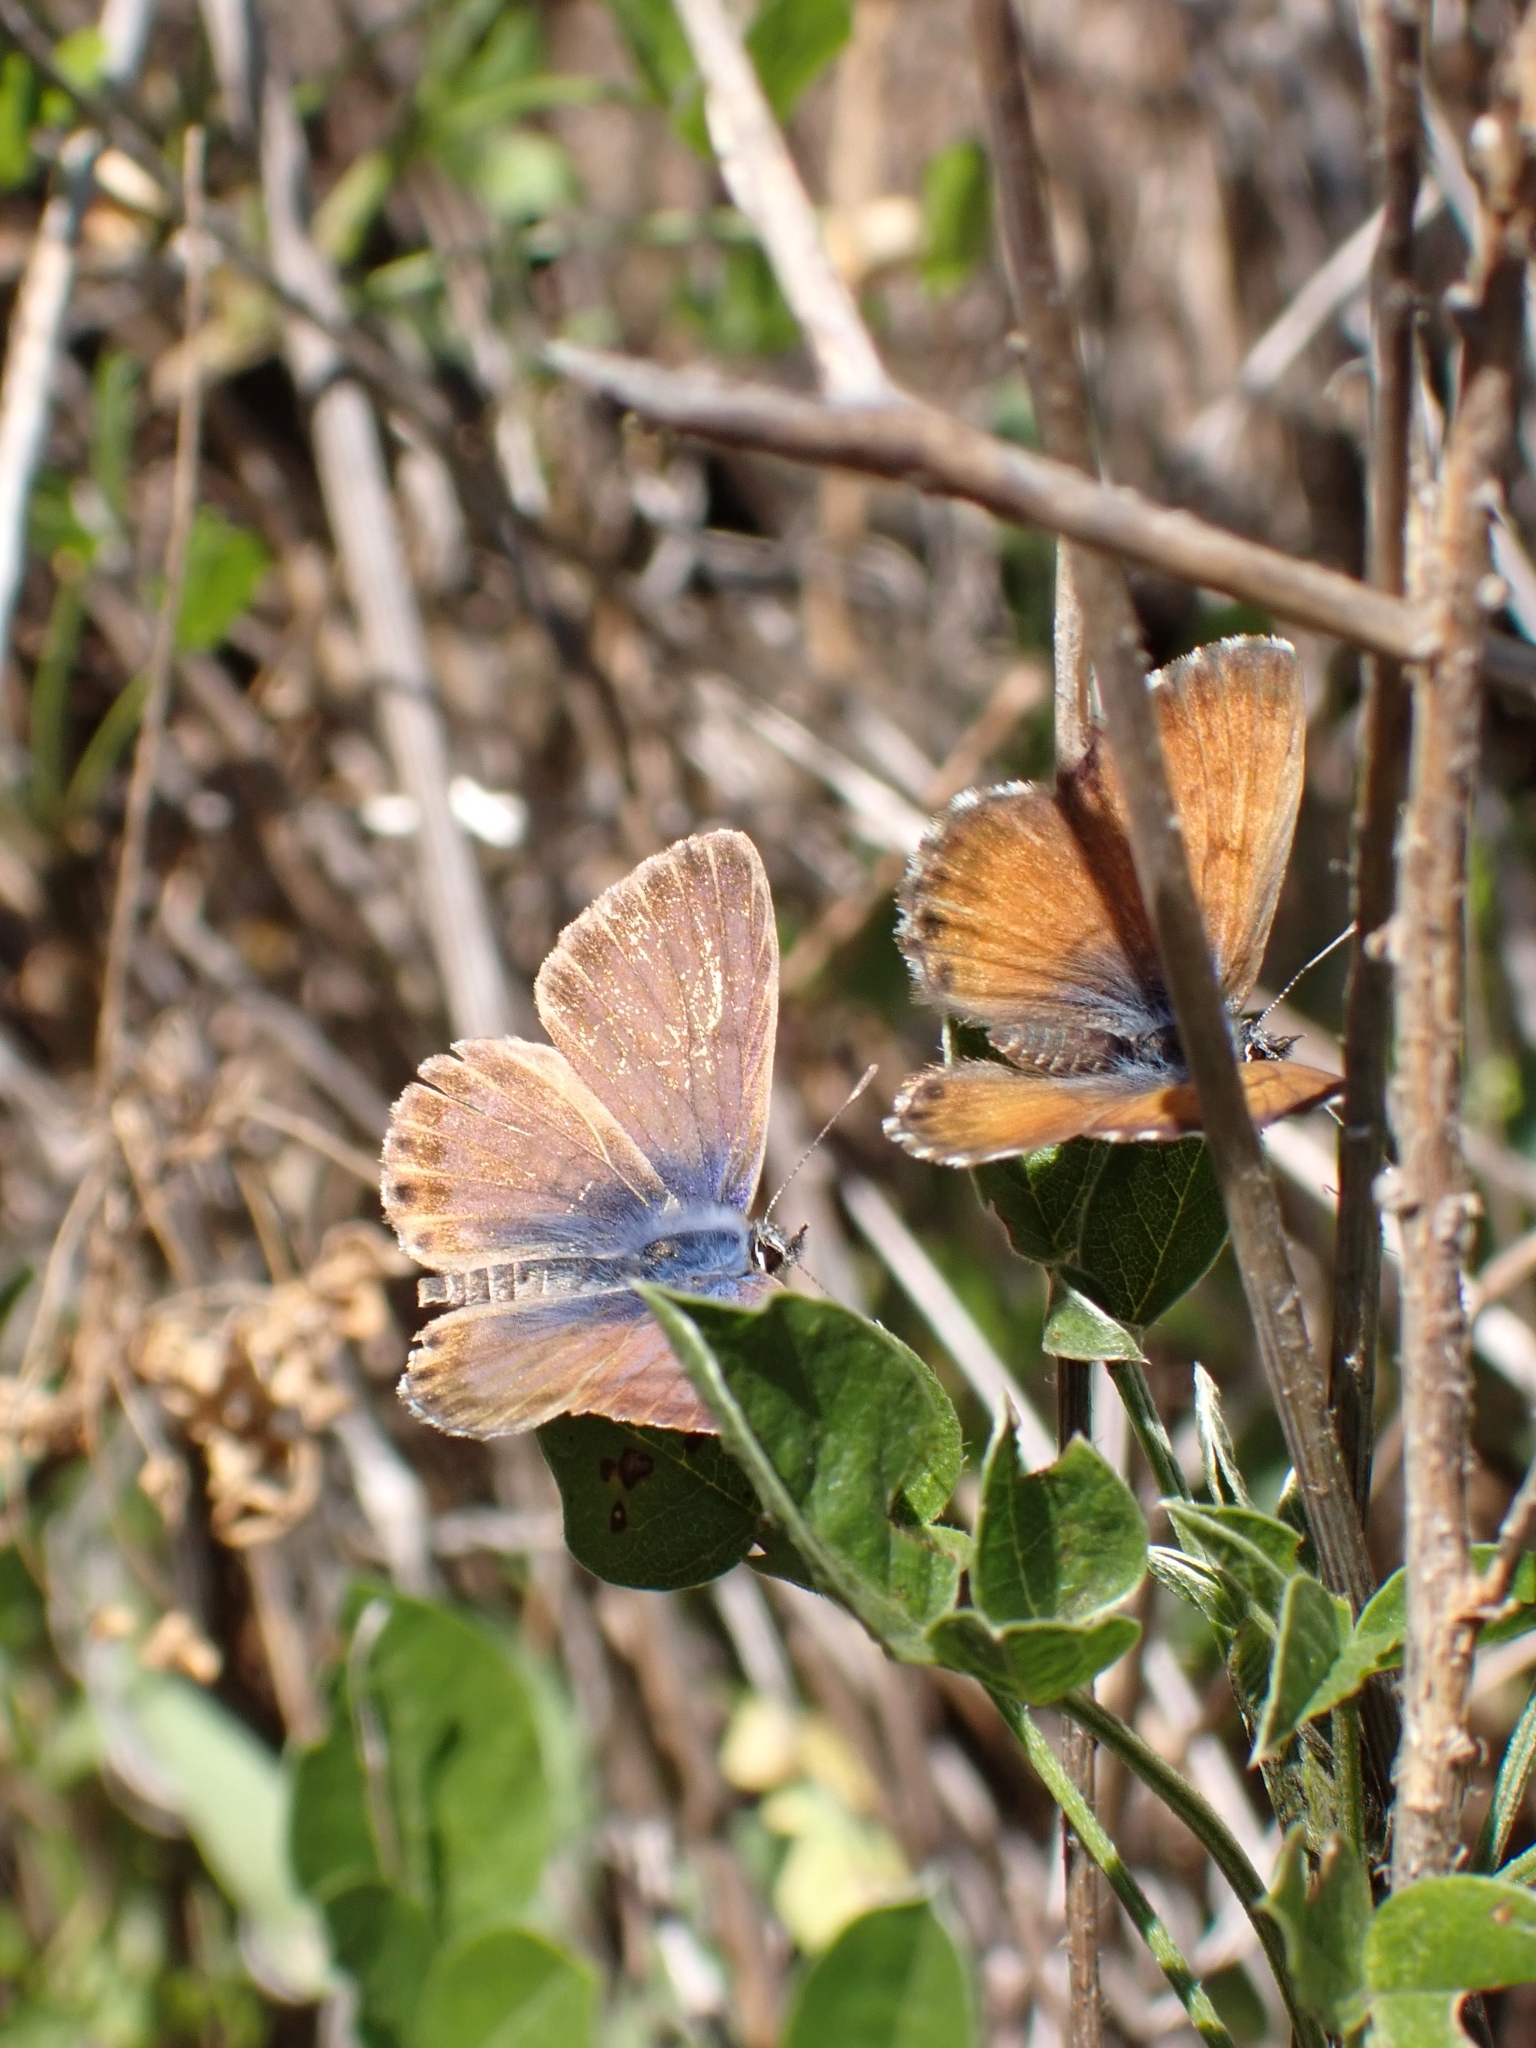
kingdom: Animalia
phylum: Arthropoda
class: Insecta
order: Lepidoptera
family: Lycaenidae
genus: Cyclyrius
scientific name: Cyclyrius webbianus
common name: Canary blue
